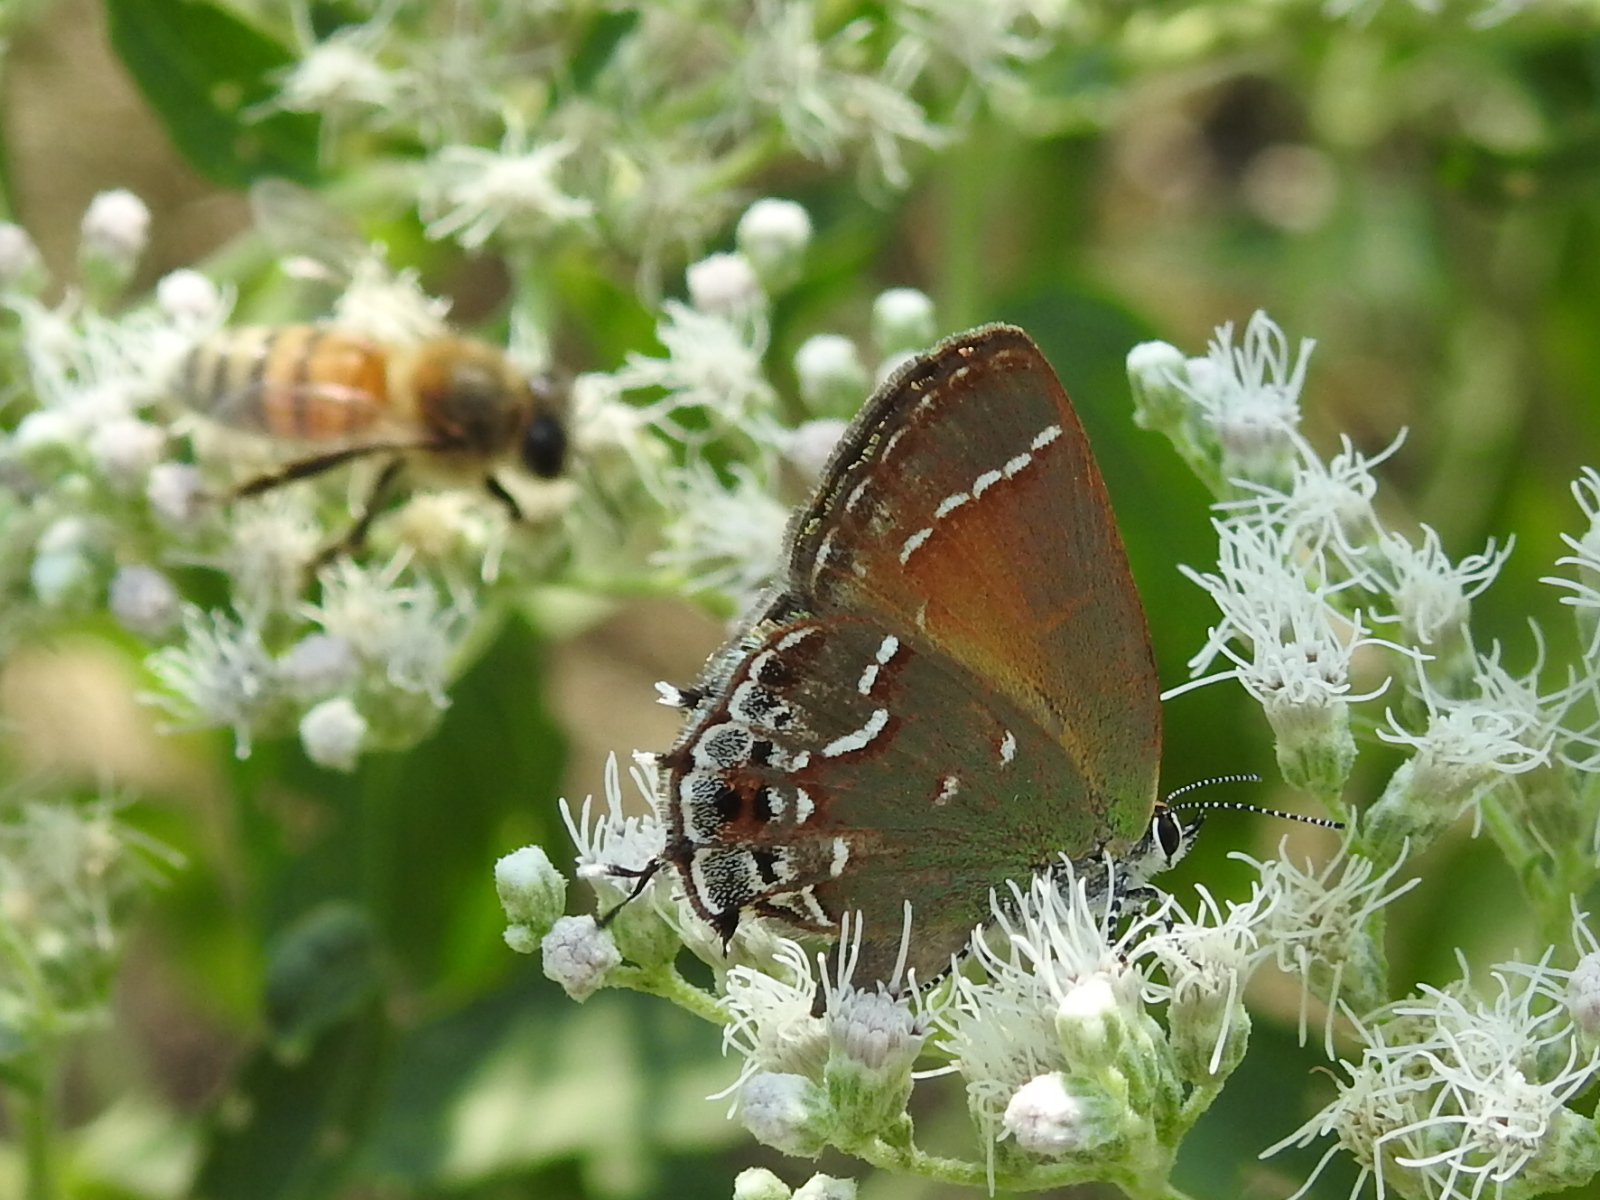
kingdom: Animalia
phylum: Arthropoda
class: Insecta
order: Lepidoptera
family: Lycaenidae
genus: Mitoura
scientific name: Mitoura gryneus
